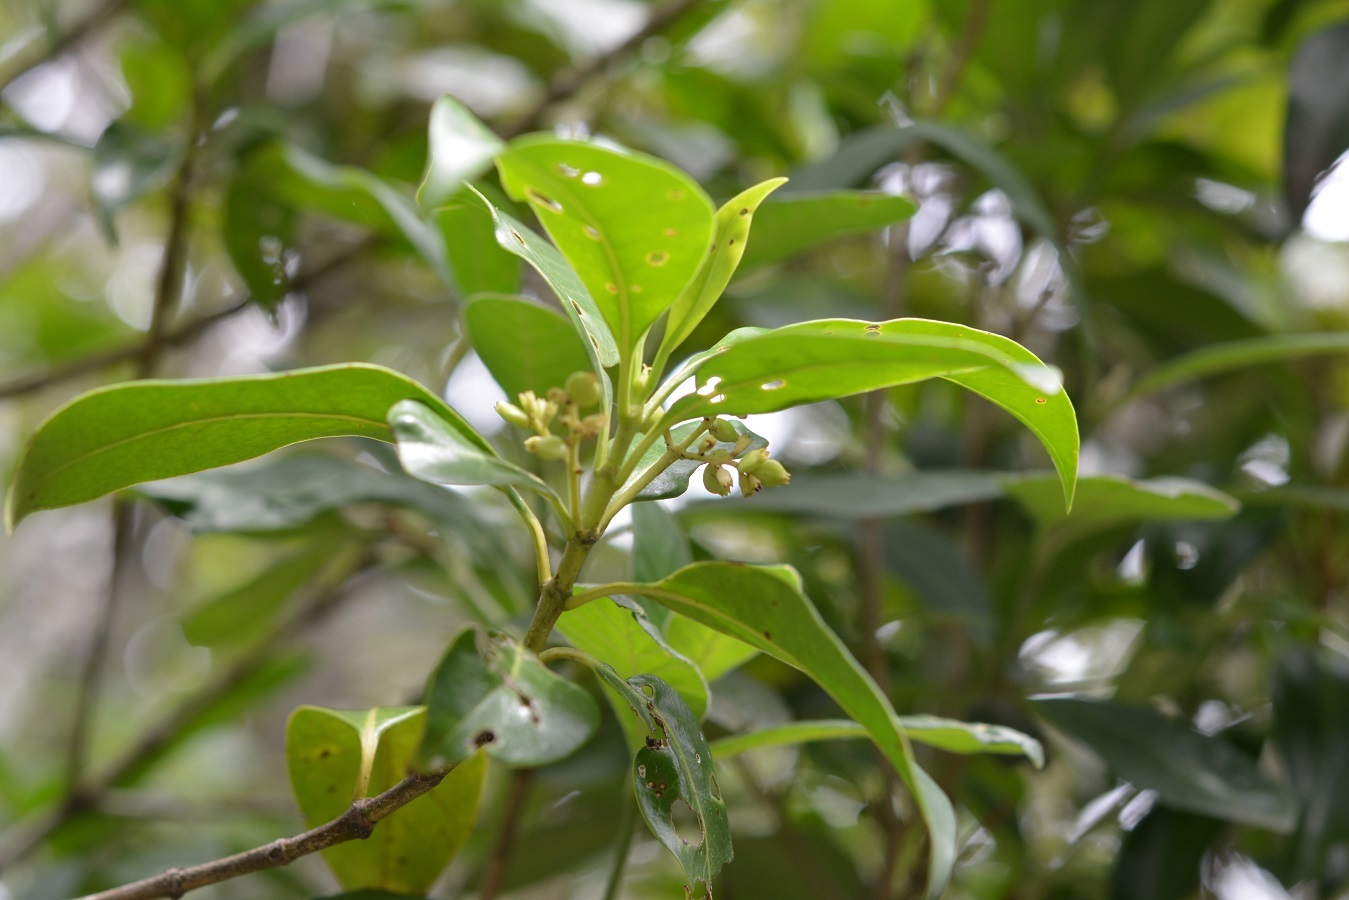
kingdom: Plantae
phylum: Tracheophyta
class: Magnoliopsida
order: Gentianales
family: Rubiaceae
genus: Chiococca
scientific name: Chiococca phaenostemon
